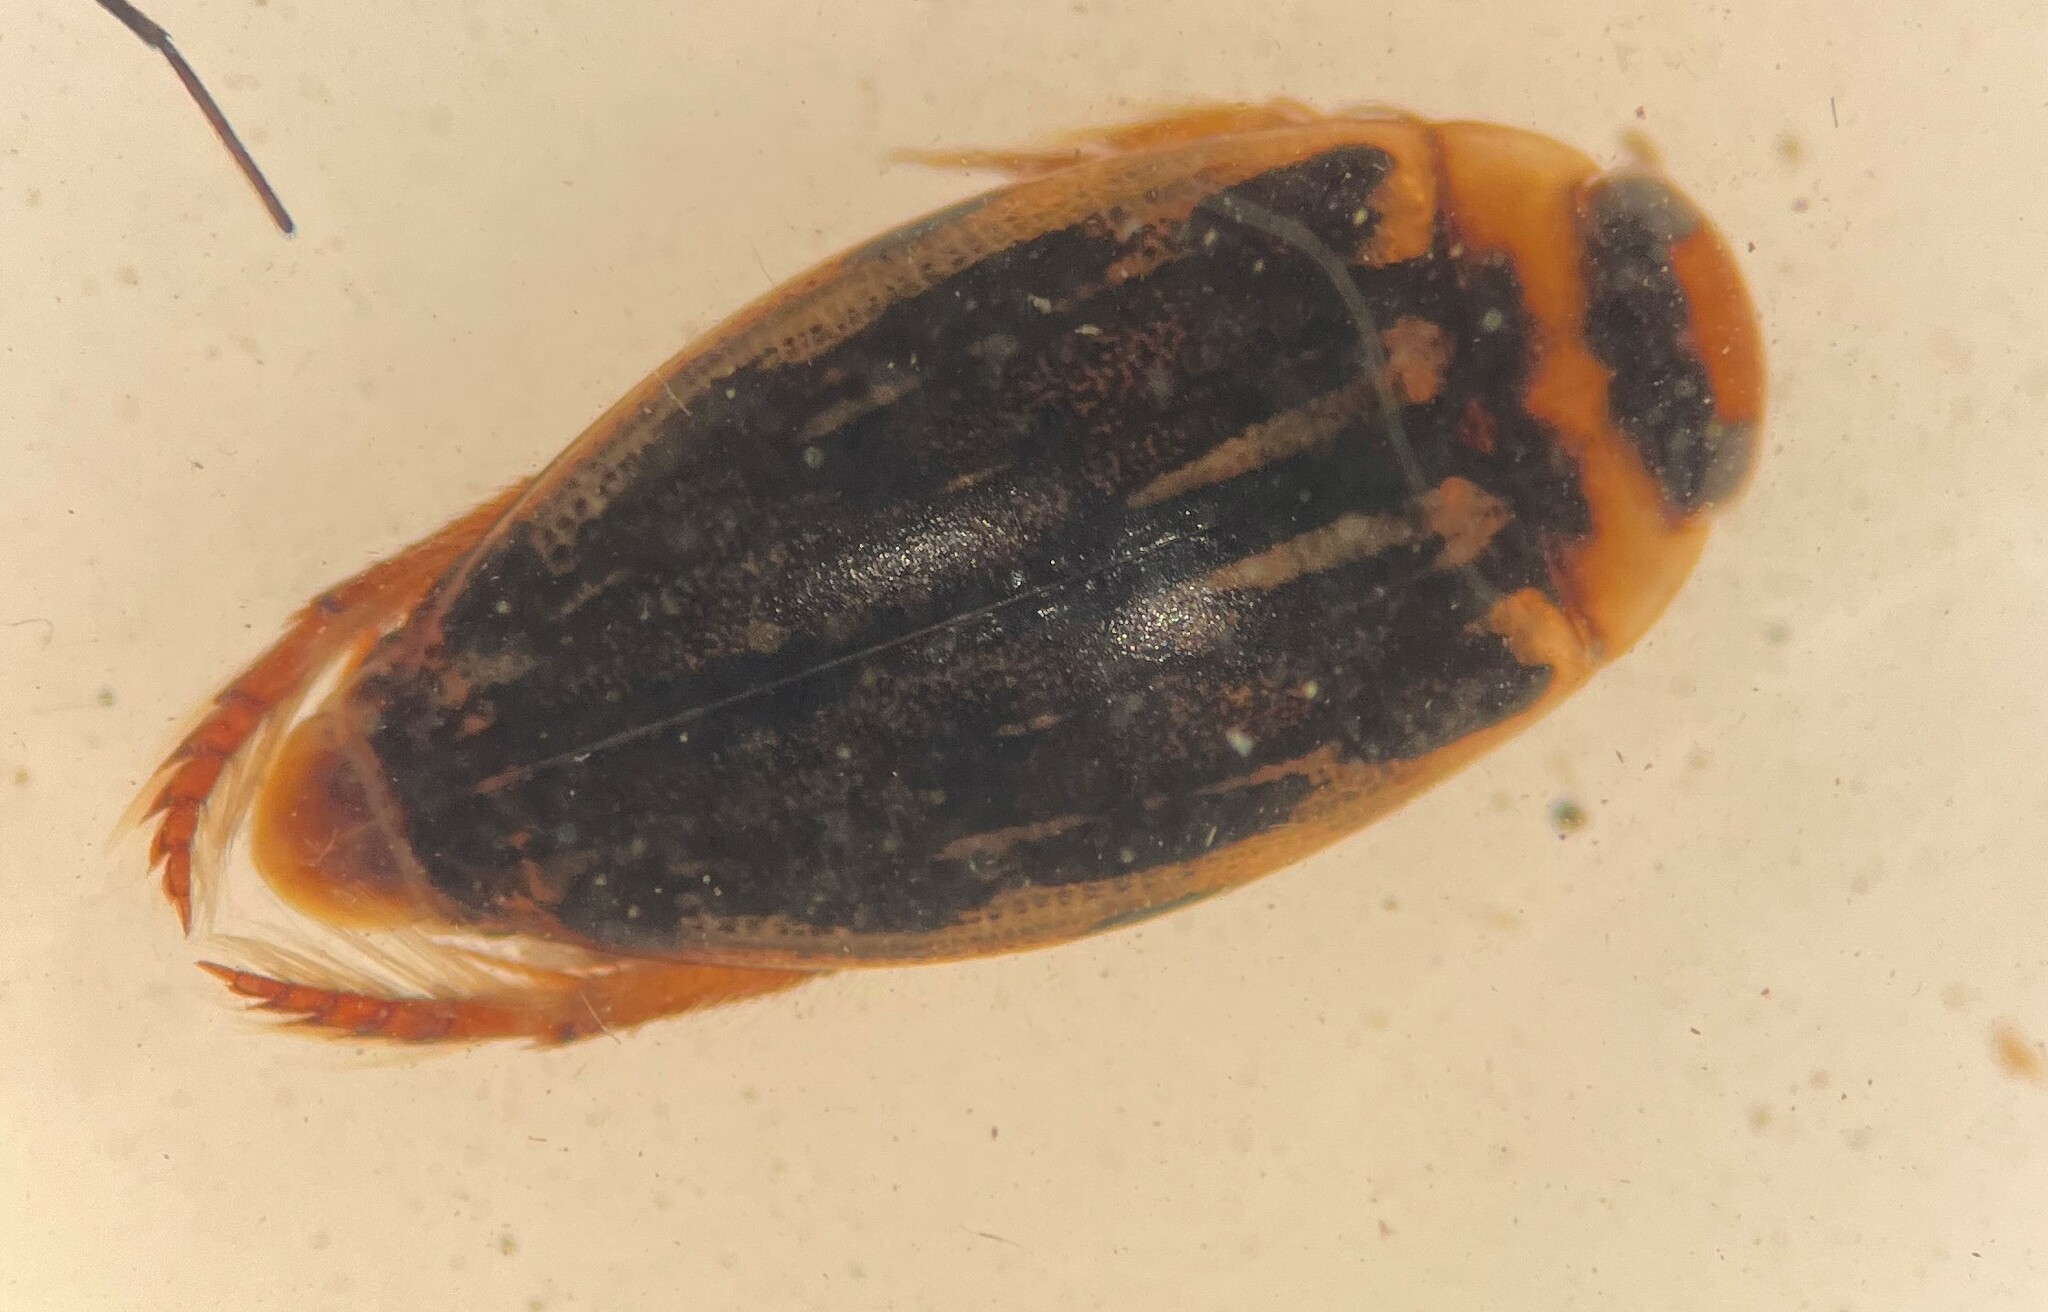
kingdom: Animalia
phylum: Arthropoda
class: Insecta
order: Coleoptera
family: Dytiscidae
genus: Coptotomus
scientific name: Coptotomus longulus
